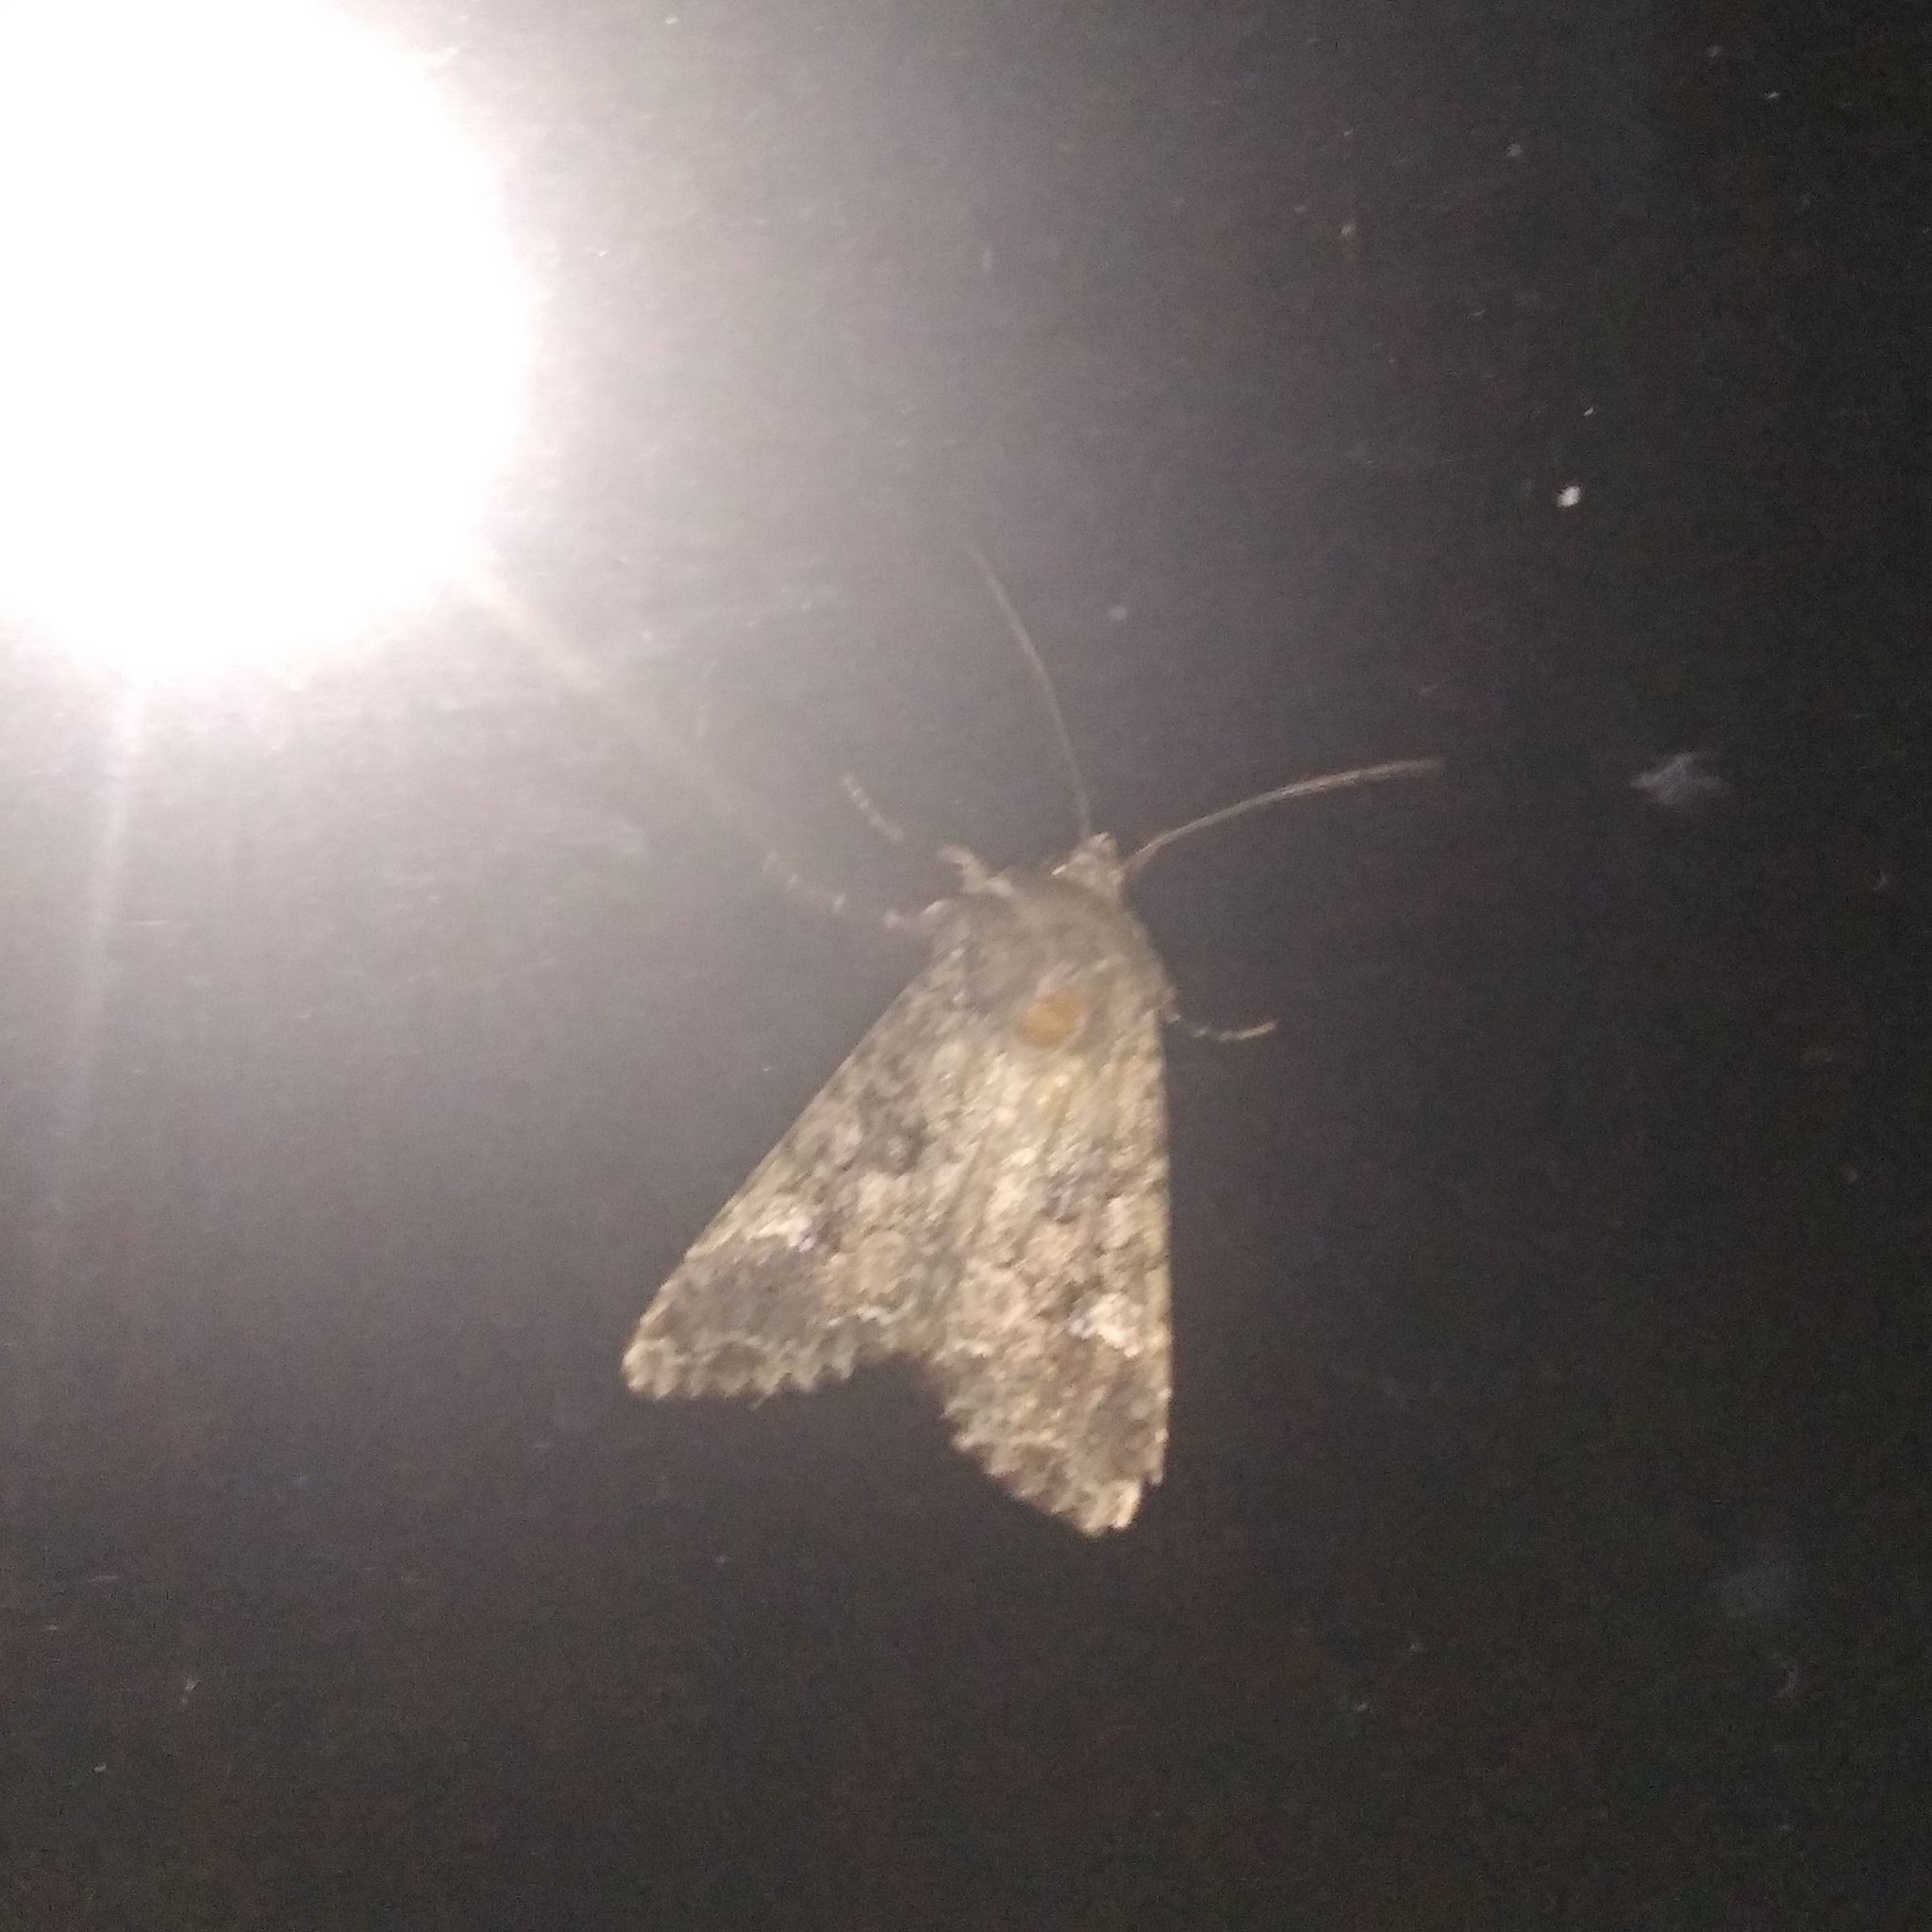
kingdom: Animalia
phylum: Arthropoda
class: Insecta
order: Lepidoptera
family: Noctuidae
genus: Mamestra
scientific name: Mamestra brassicae
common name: Cabbage moth
